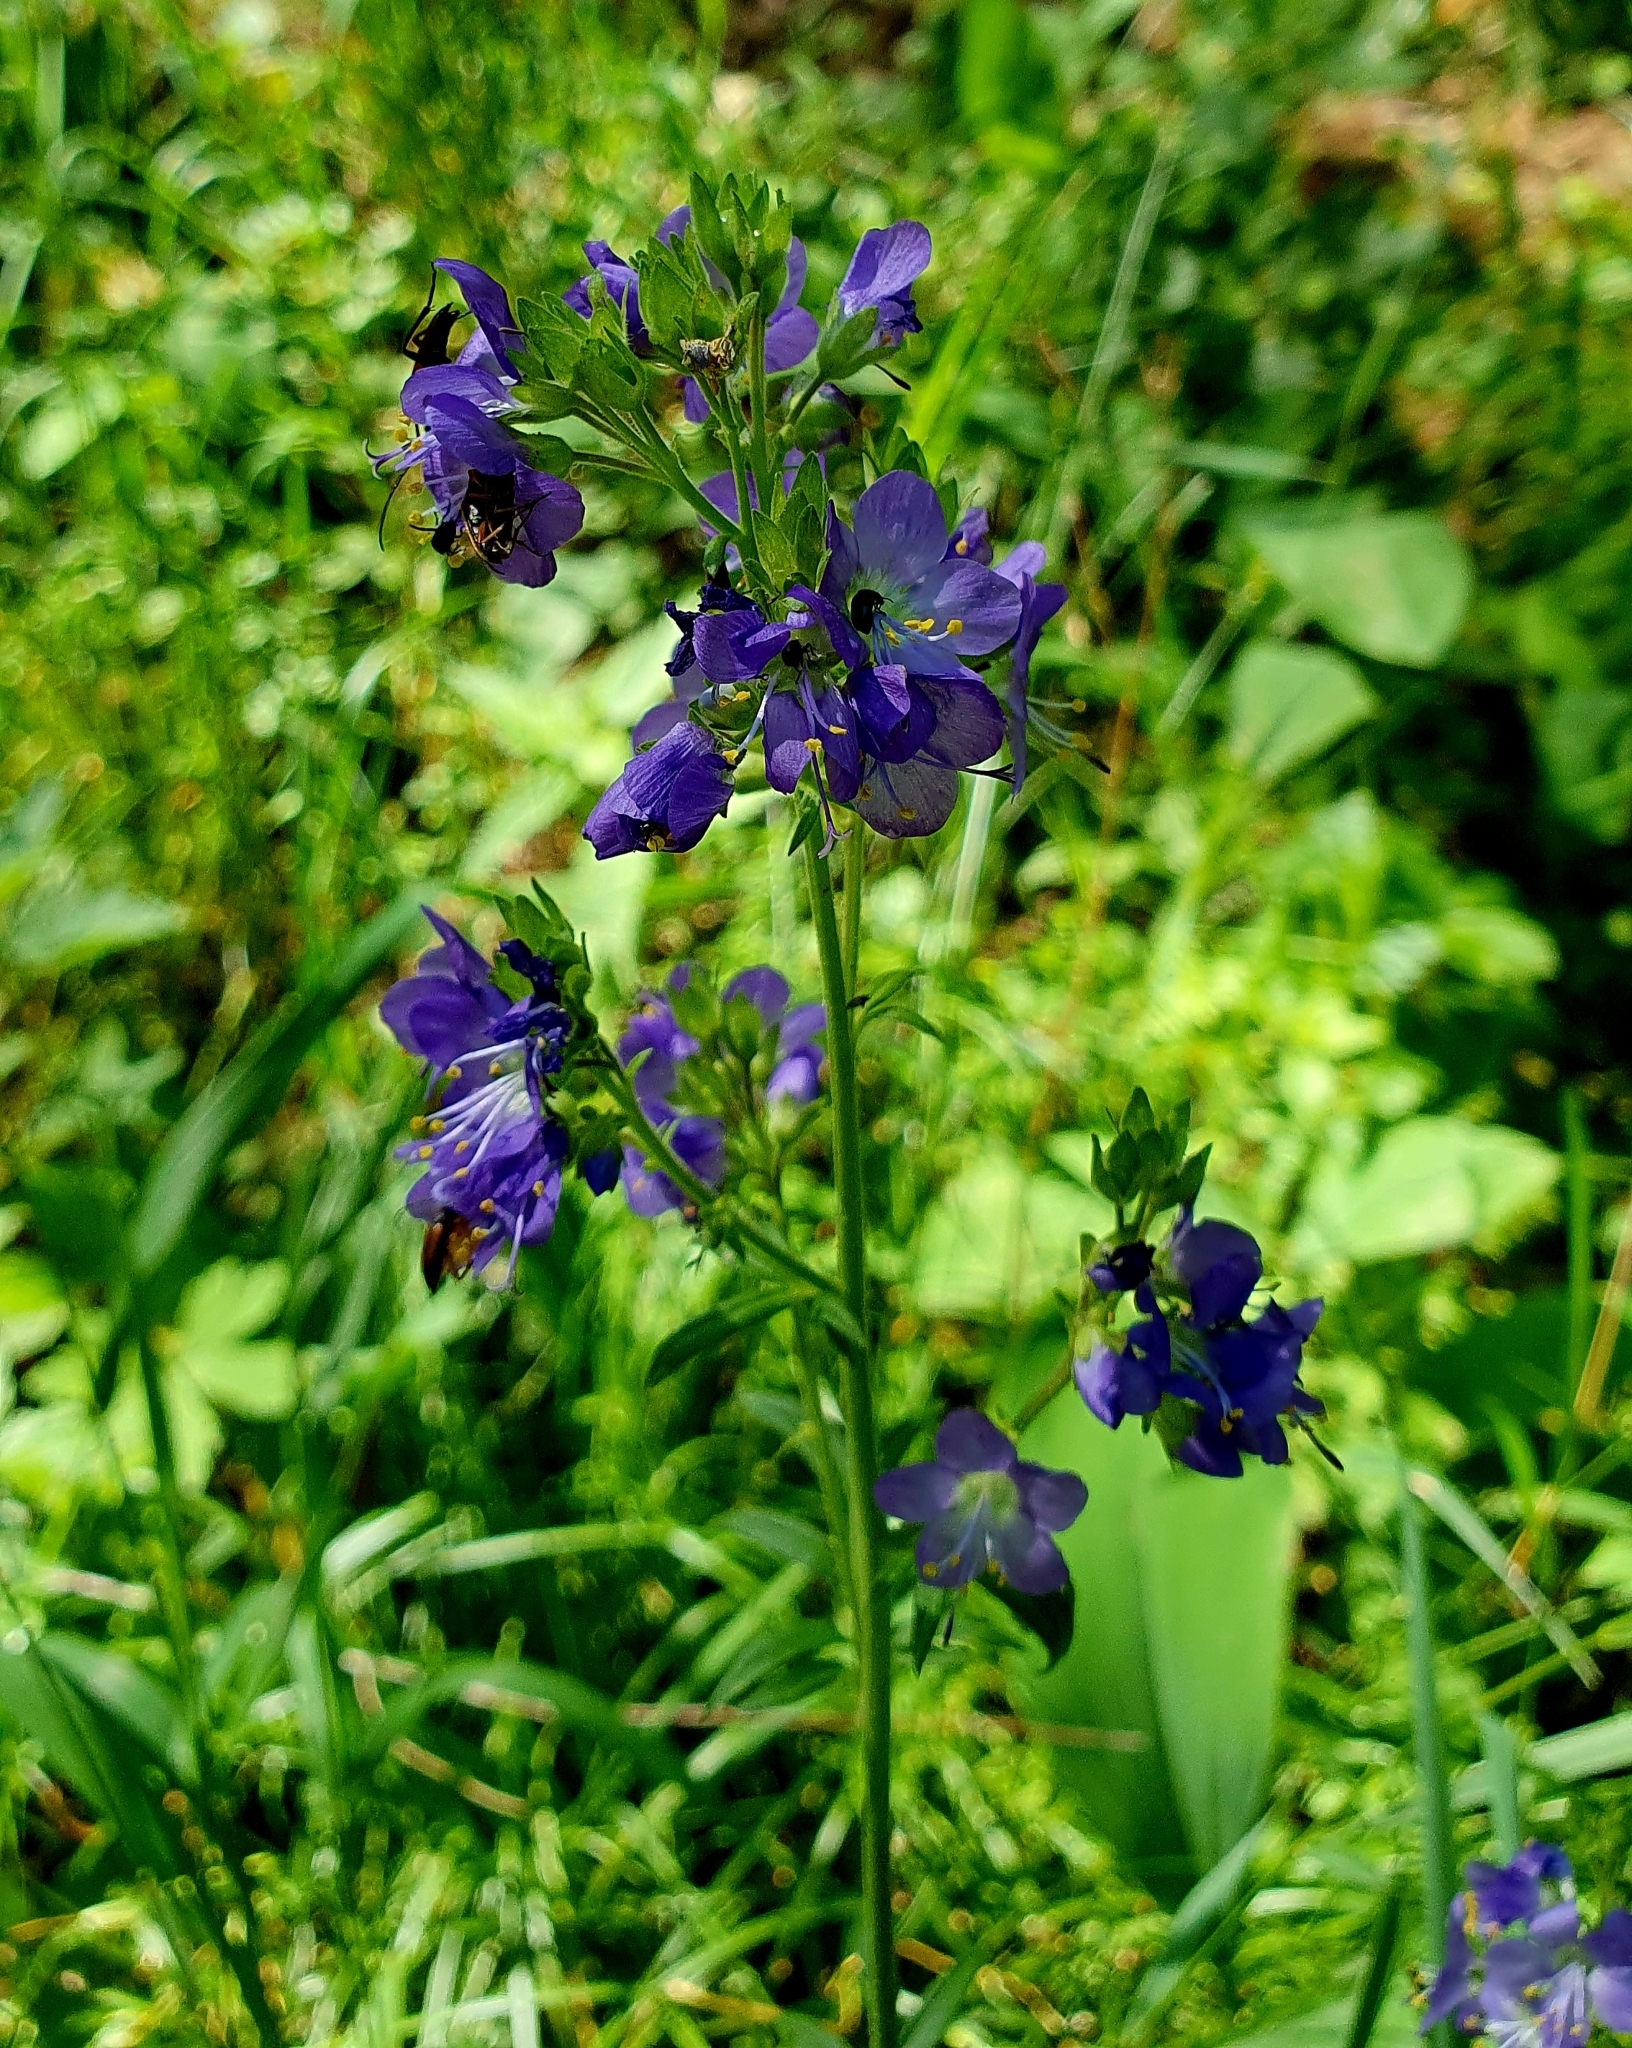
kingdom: Plantae
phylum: Tracheophyta
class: Magnoliopsida
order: Ericales
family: Polemoniaceae
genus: Polemonium
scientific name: Polemonium caeruleum
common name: Jacob's-ladder
